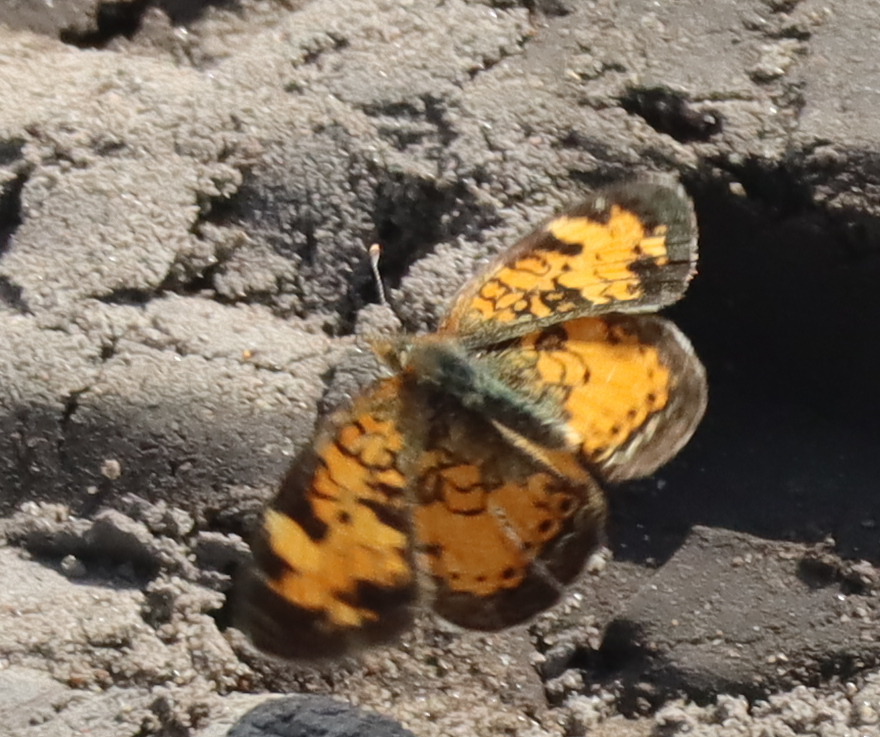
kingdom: Animalia
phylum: Arthropoda
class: Insecta
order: Lepidoptera
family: Nymphalidae
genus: Phyciodes
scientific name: Phyciodes tharos
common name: Pearl crescent
